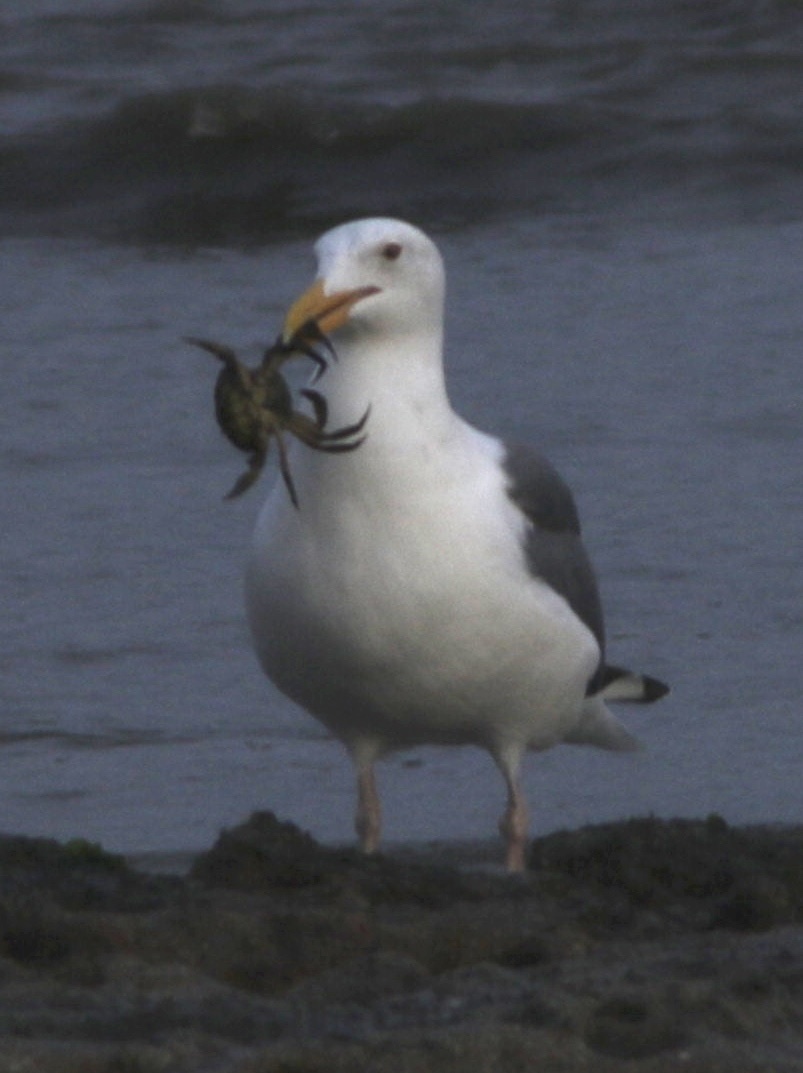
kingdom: Animalia
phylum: Chordata
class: Aves
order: Charadriiformes
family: Laridae
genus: Larus
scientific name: Larus occidentalis
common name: Western gull
